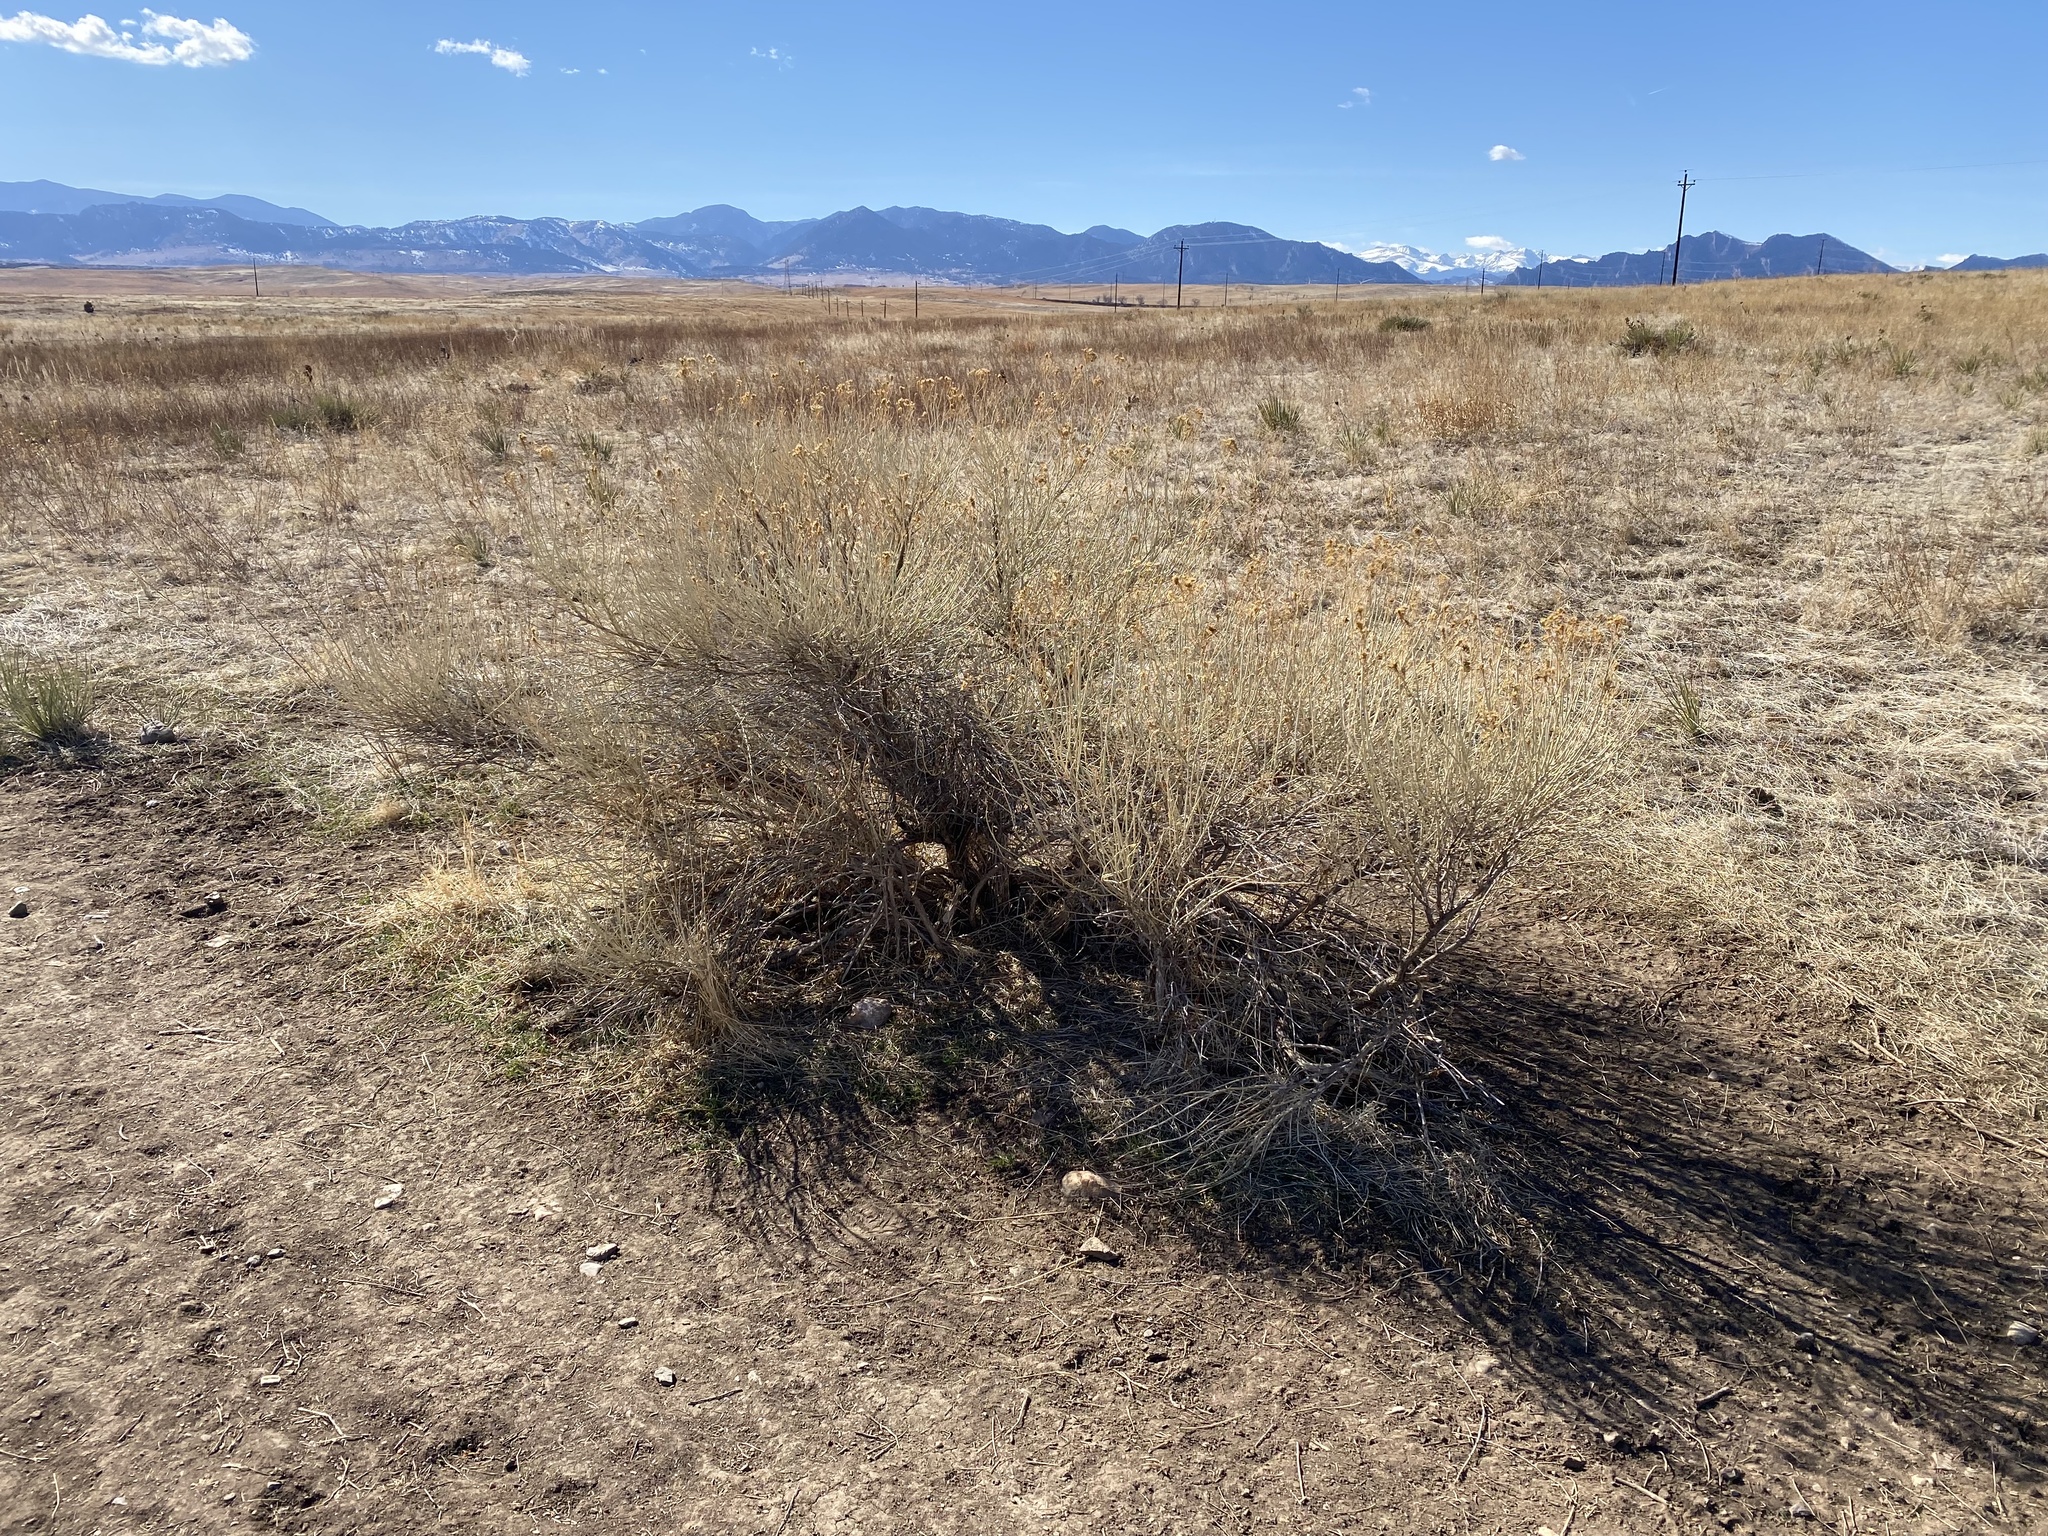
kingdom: Plantae
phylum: Tracheophyta
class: Magnoliopsida
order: Asterales
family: Asteraceae
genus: Ericameria
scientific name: Ericameria nauseosa
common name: Rubber rabbitbrush
